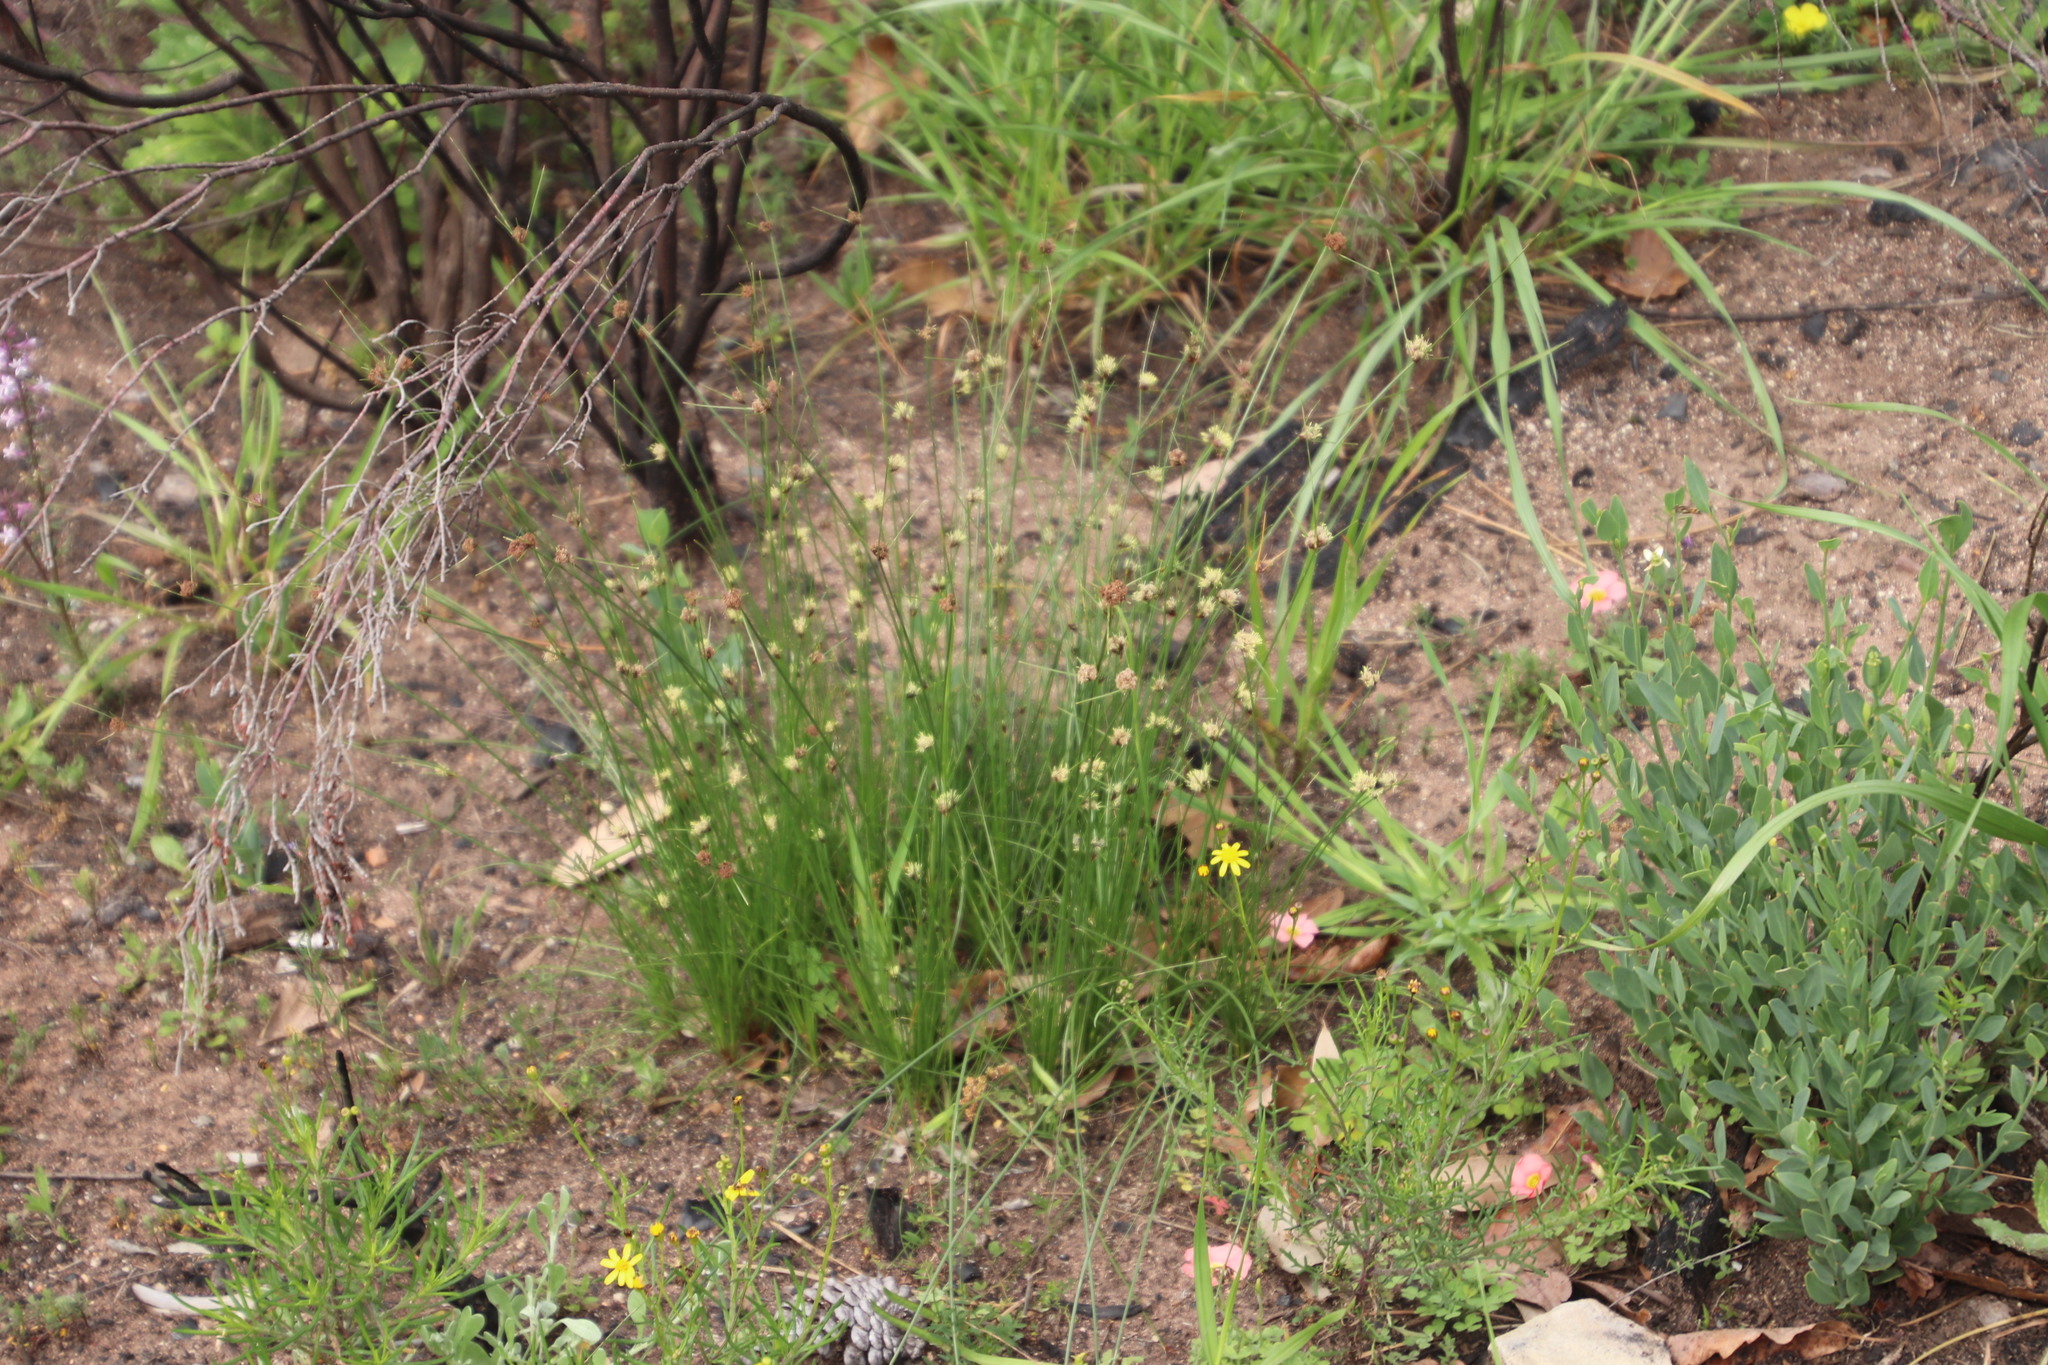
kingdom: Plantae
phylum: Tracheophyta
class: Liliopsida
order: Poales
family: Cyperaceae
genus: Ficinia
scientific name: Ficinia indica
